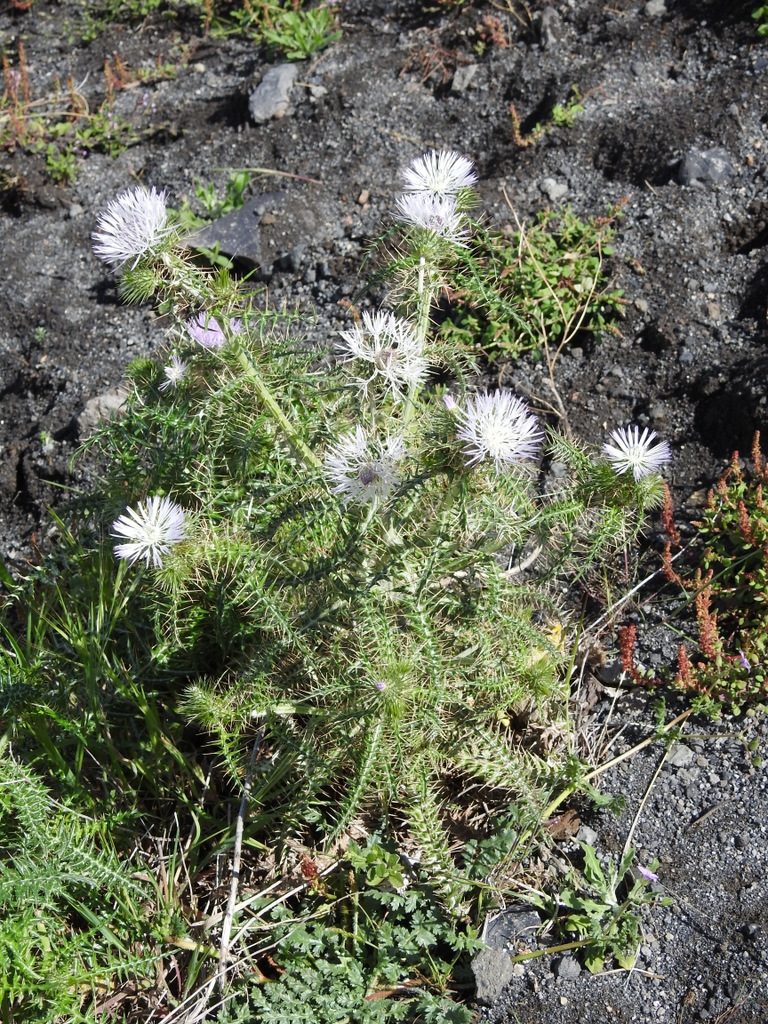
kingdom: Plantae
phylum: Tracheophyta
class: Magnoliopsida
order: Asterales
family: Asteraceae
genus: Galactites
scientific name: Galactites tomentosa
